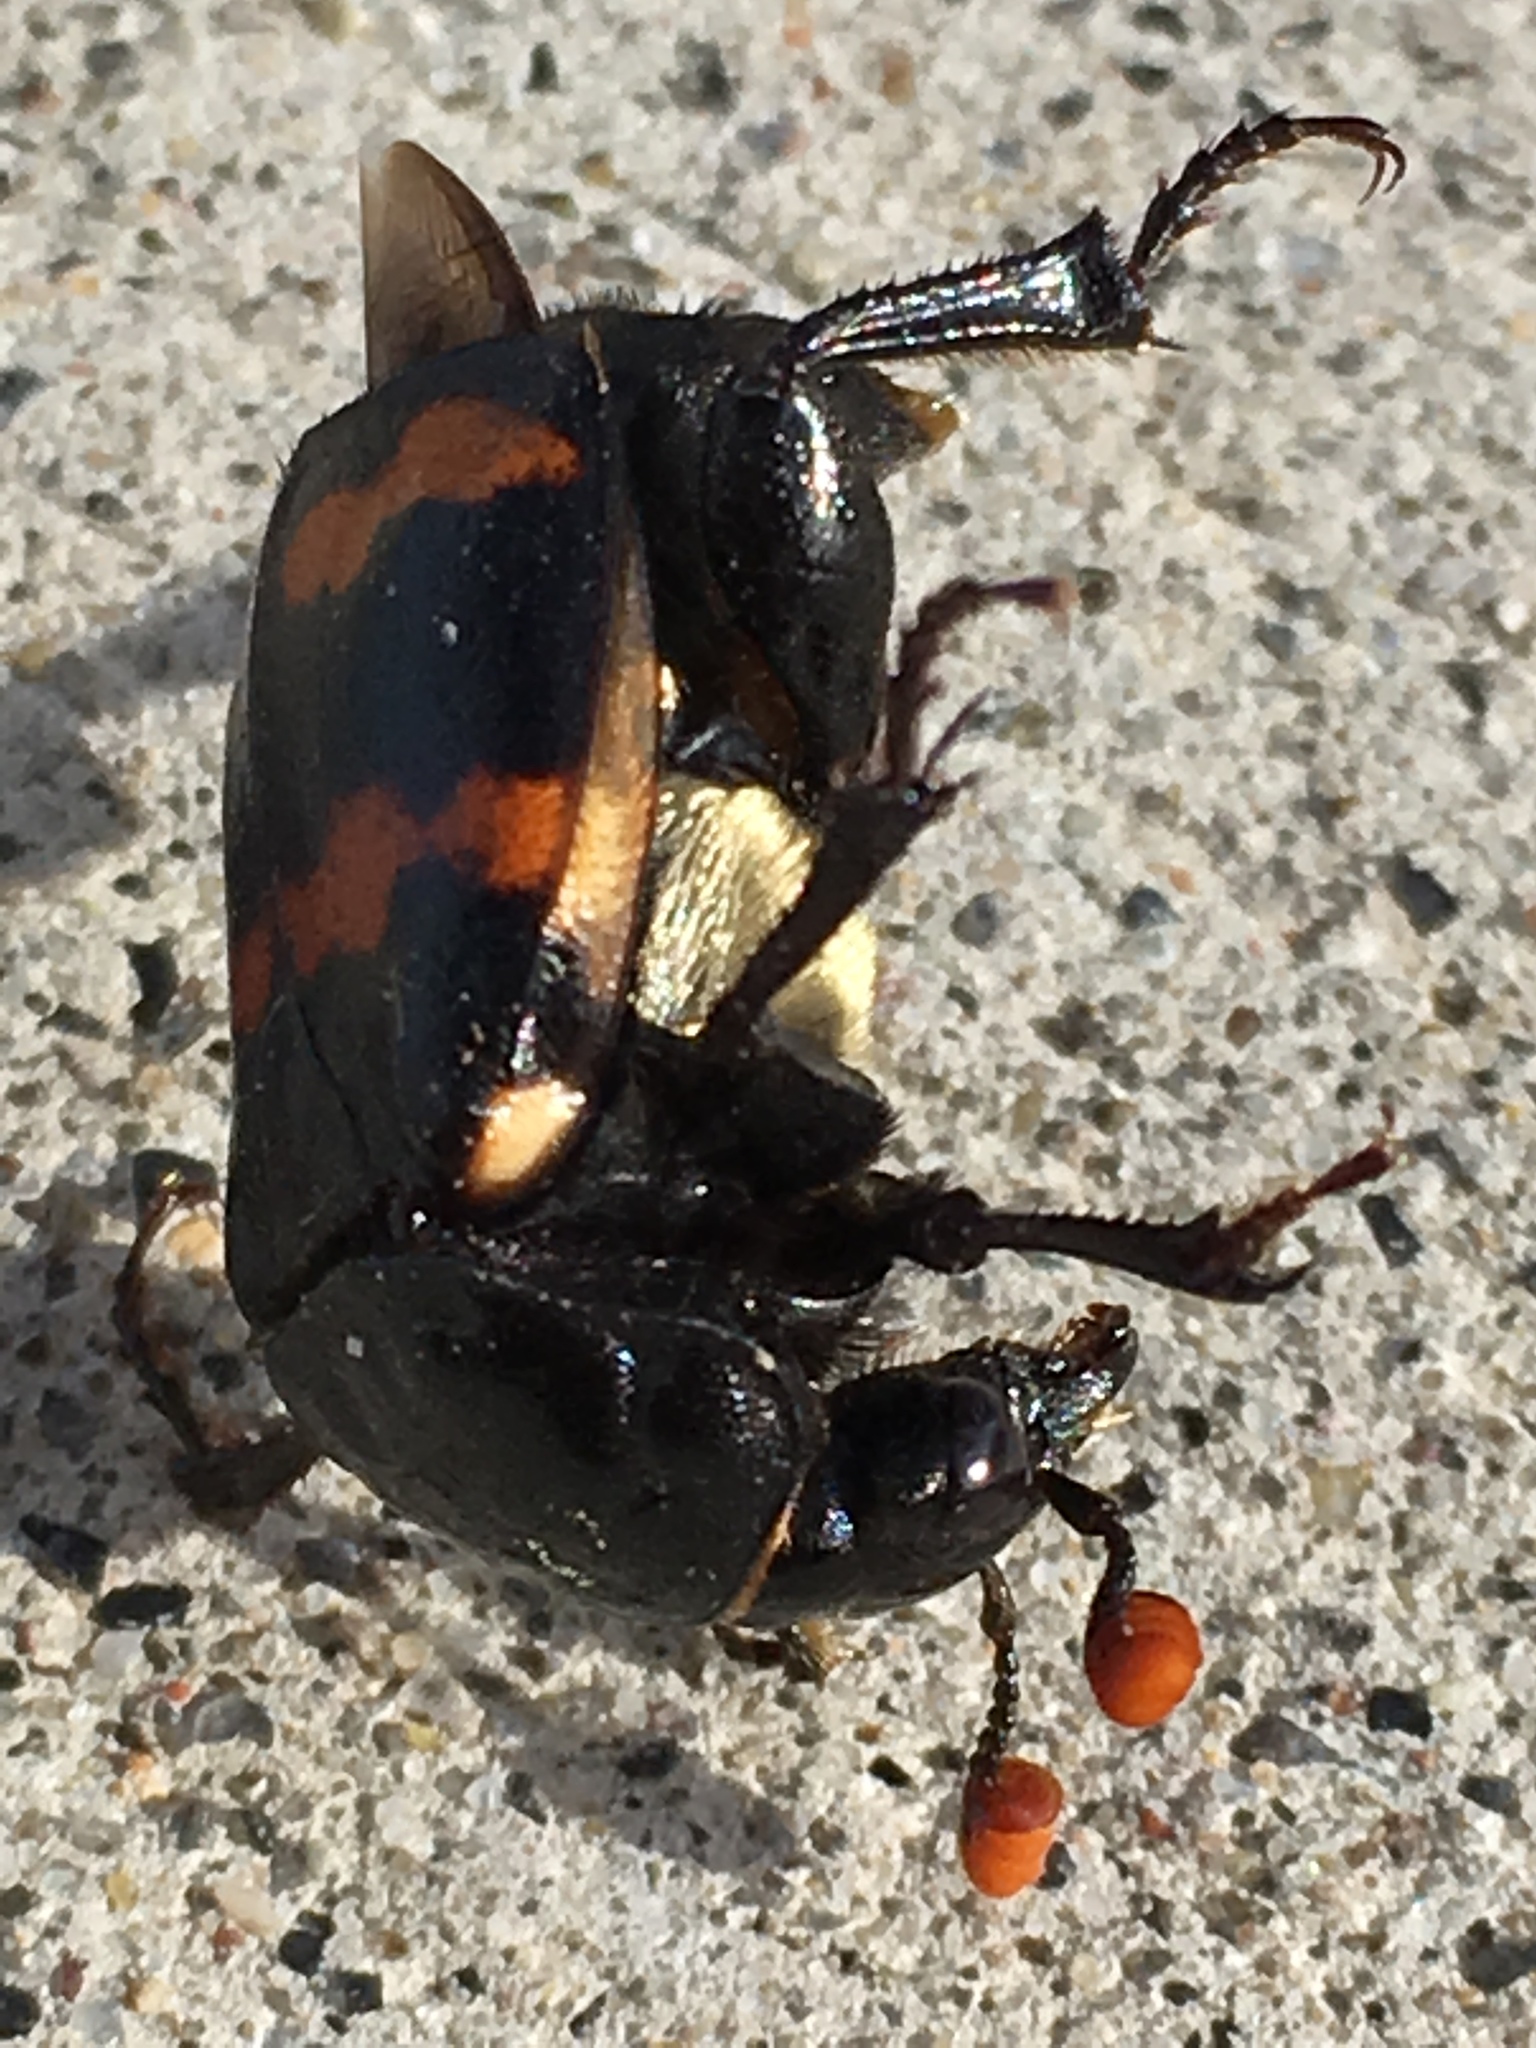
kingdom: Animalia
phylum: Arthropoda
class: Insecta
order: Coleoptera
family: Staphylinidae
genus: Nicrophorus
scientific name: Nicrophorus guttula
